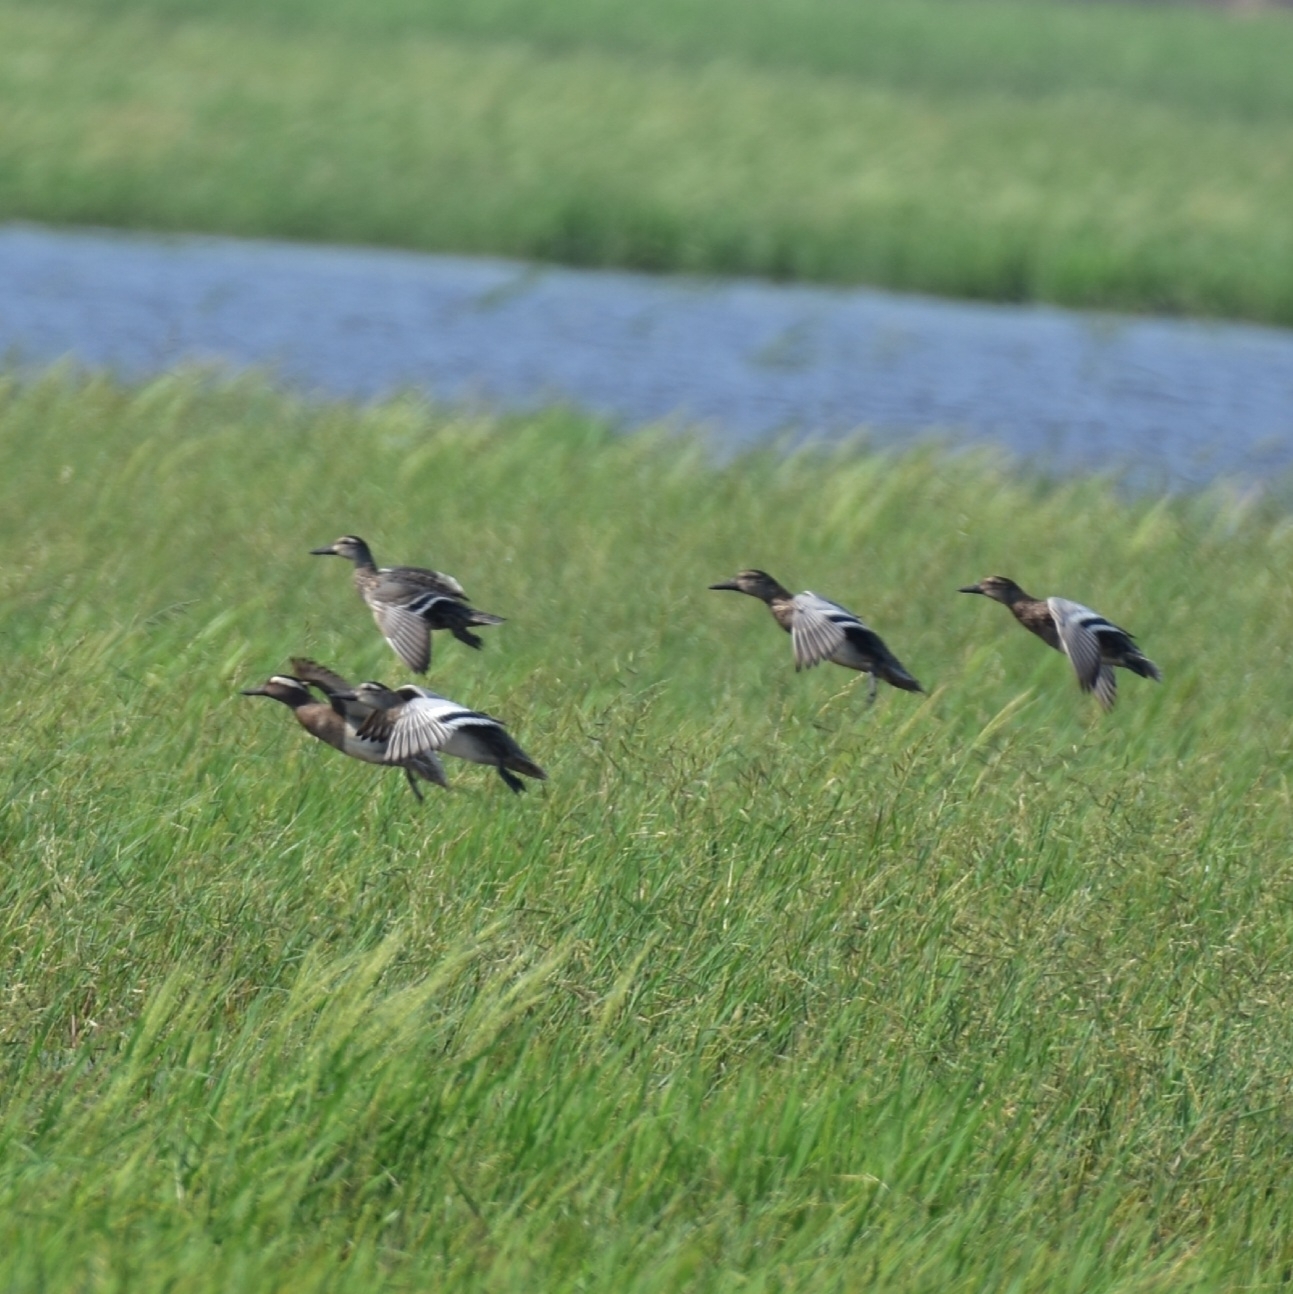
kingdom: Animalia
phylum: Chordata
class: Aves
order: Anseriformes
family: Anatidae
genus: Spatula
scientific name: Spatula querquedula
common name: Garganey
